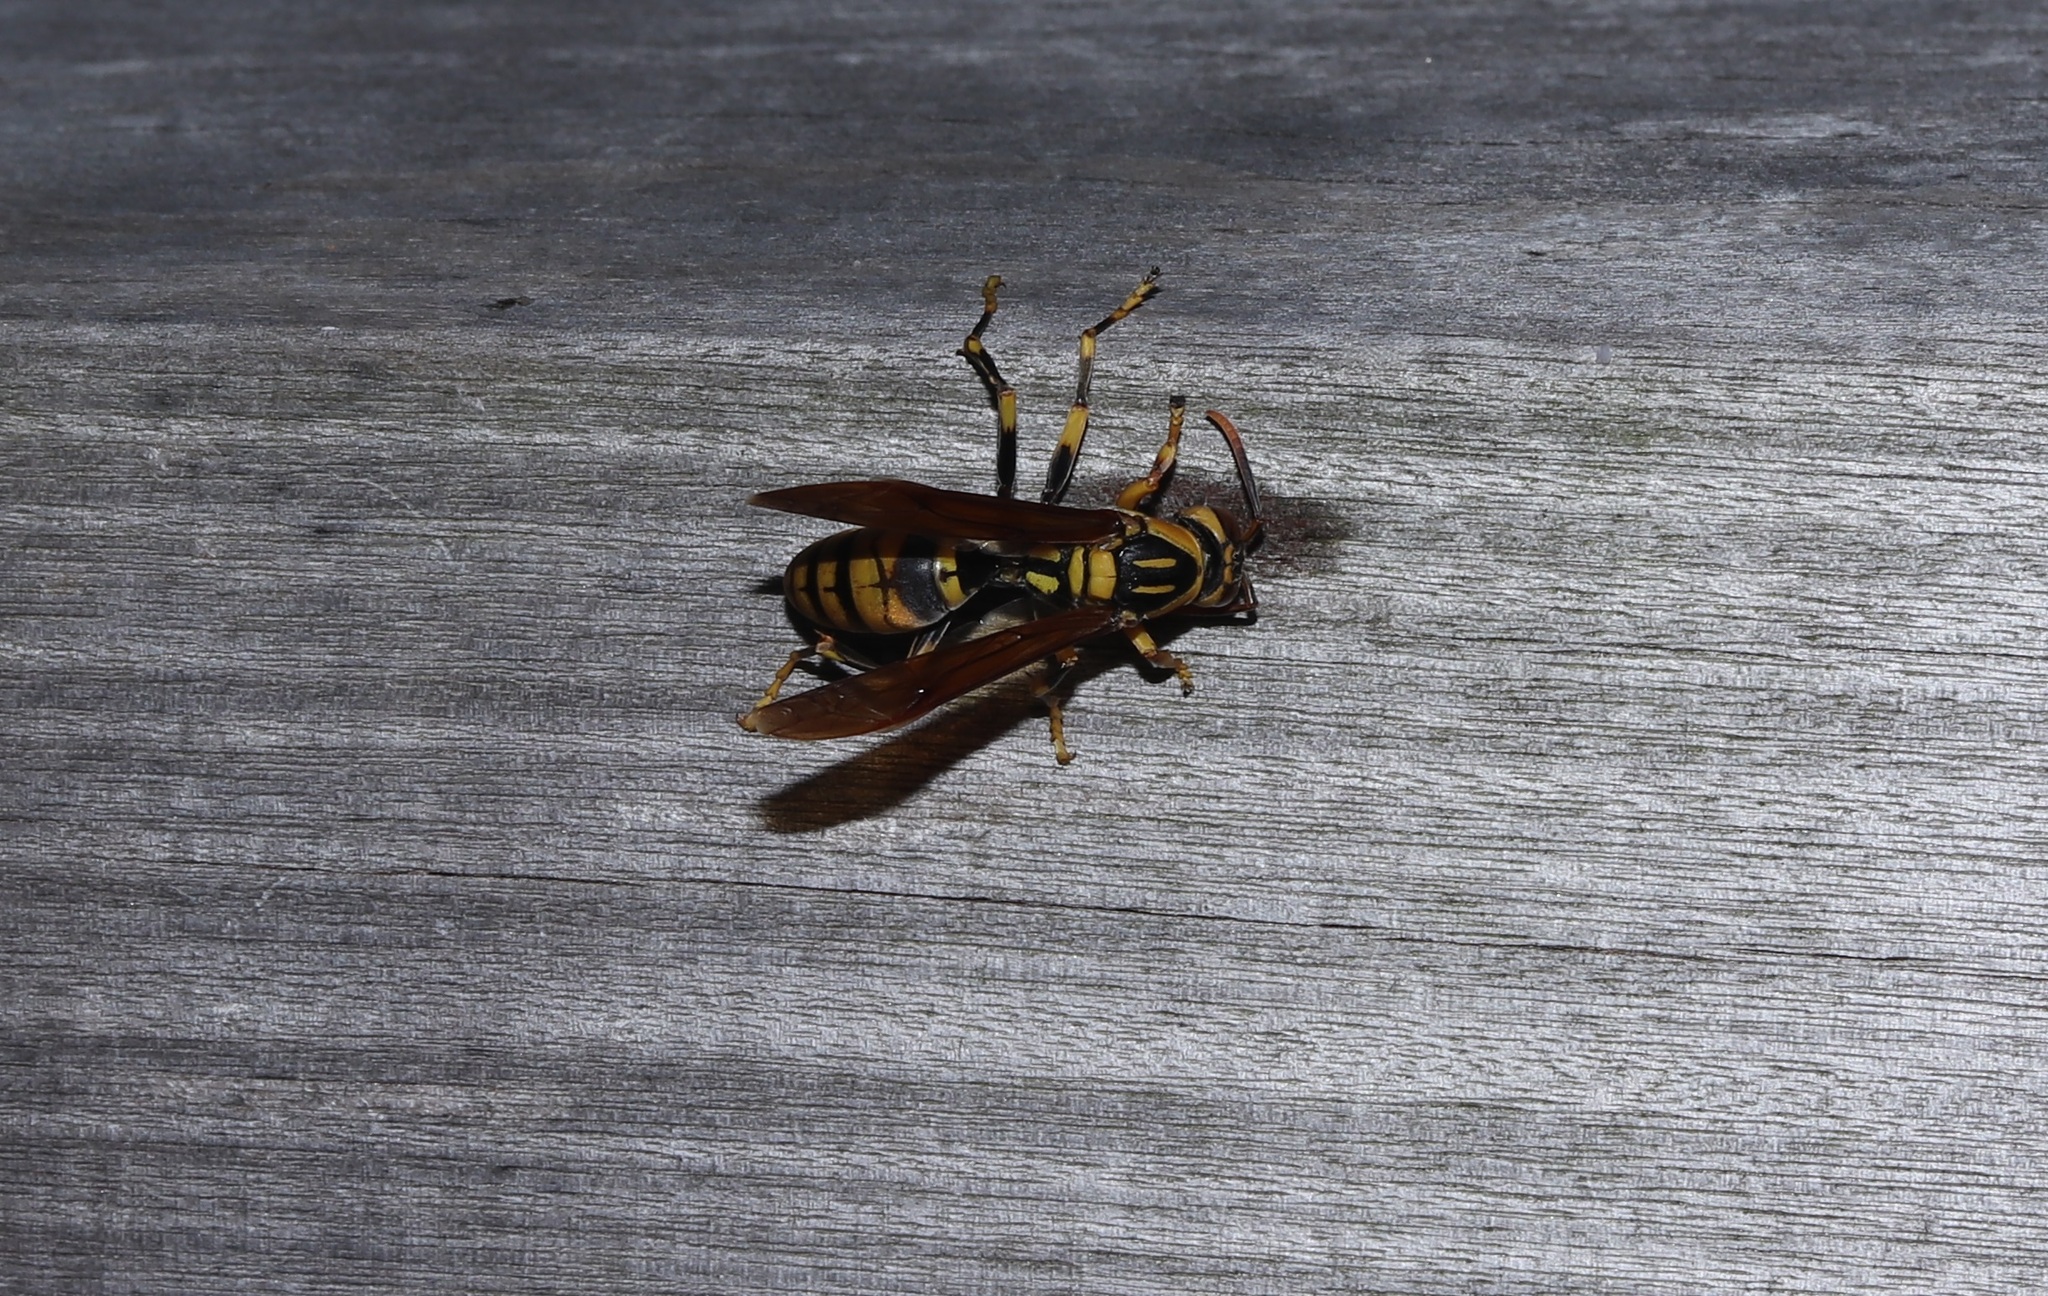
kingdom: Animalia
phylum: Arthropoda
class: Insecta
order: Hymenoptera
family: Eumenidae
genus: Polistes
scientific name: Polistes rothneyi
